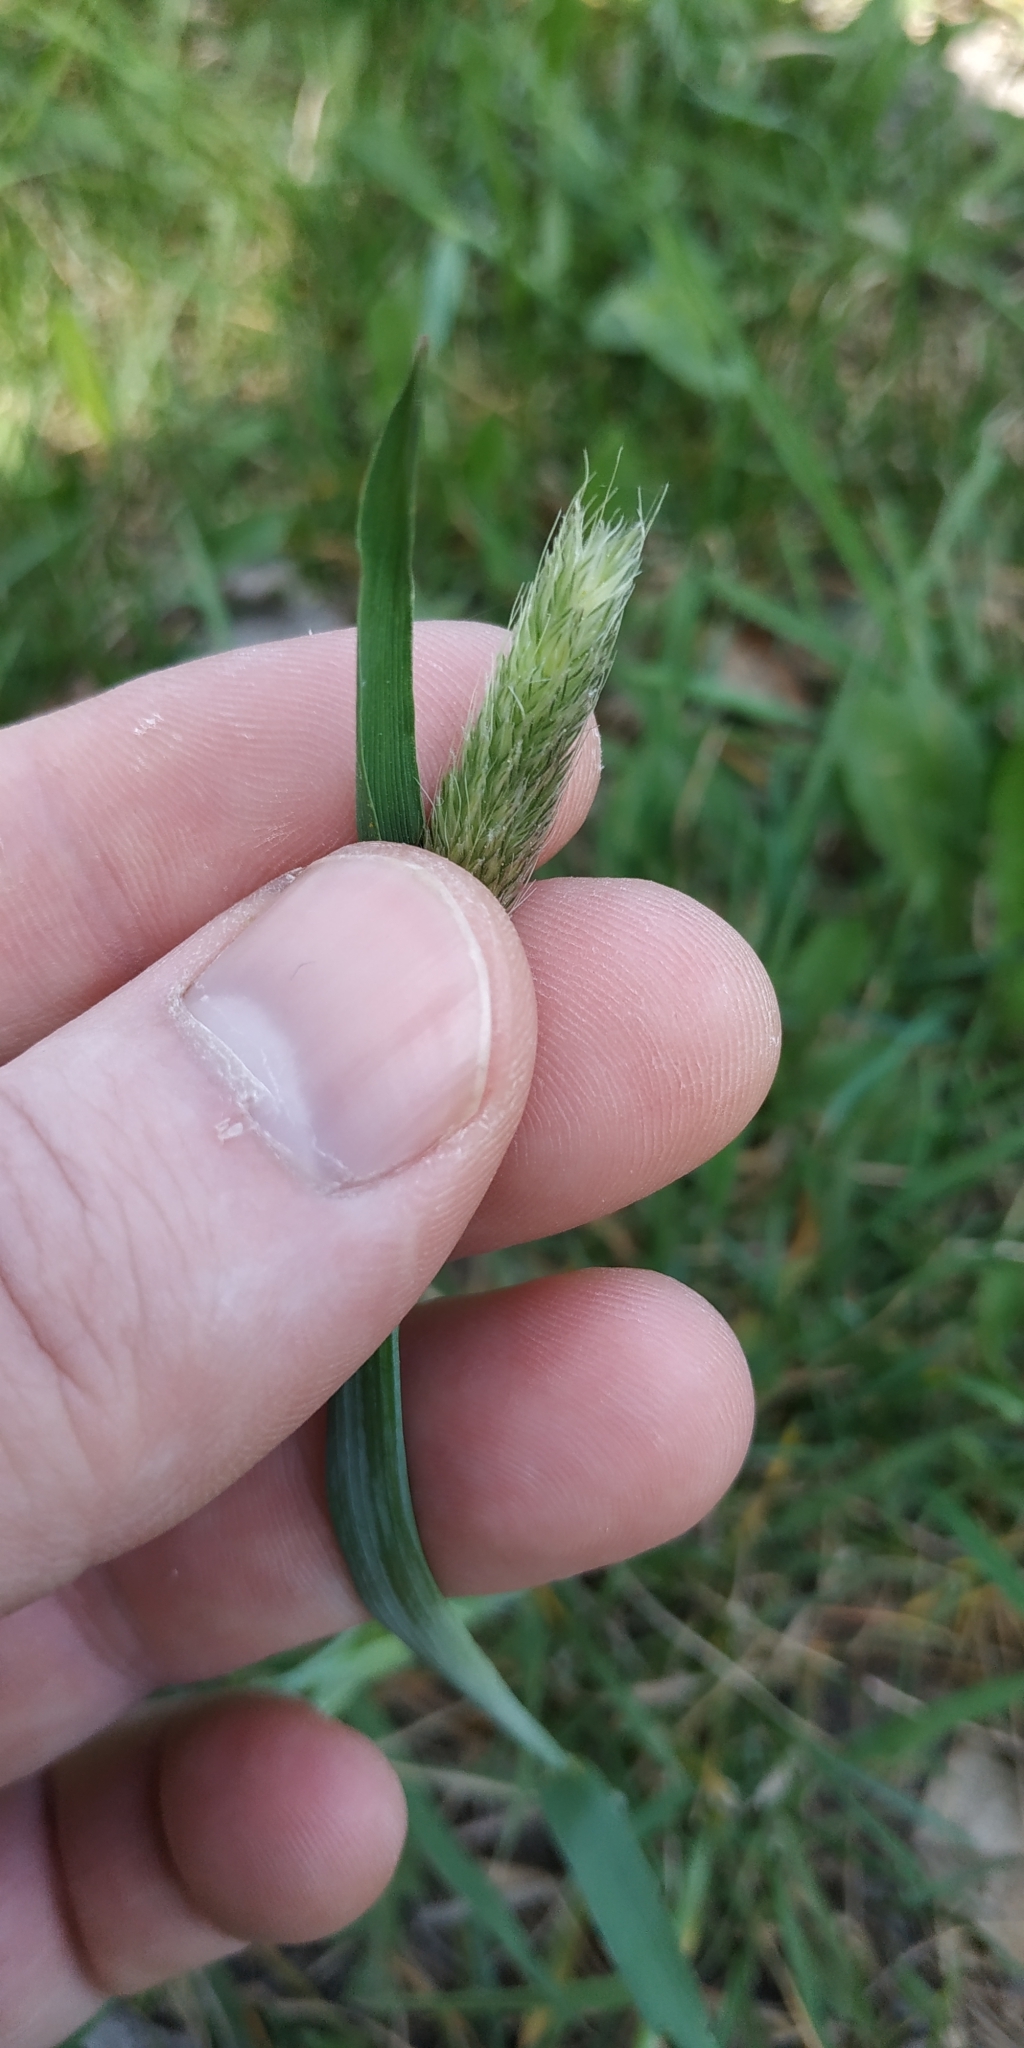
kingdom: Plantae
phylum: Tracheophyta
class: Liliopsida
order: Poales
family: Poaceae
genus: Alopecurus
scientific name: Alopecurus pratensis
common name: Meadow foxtail
